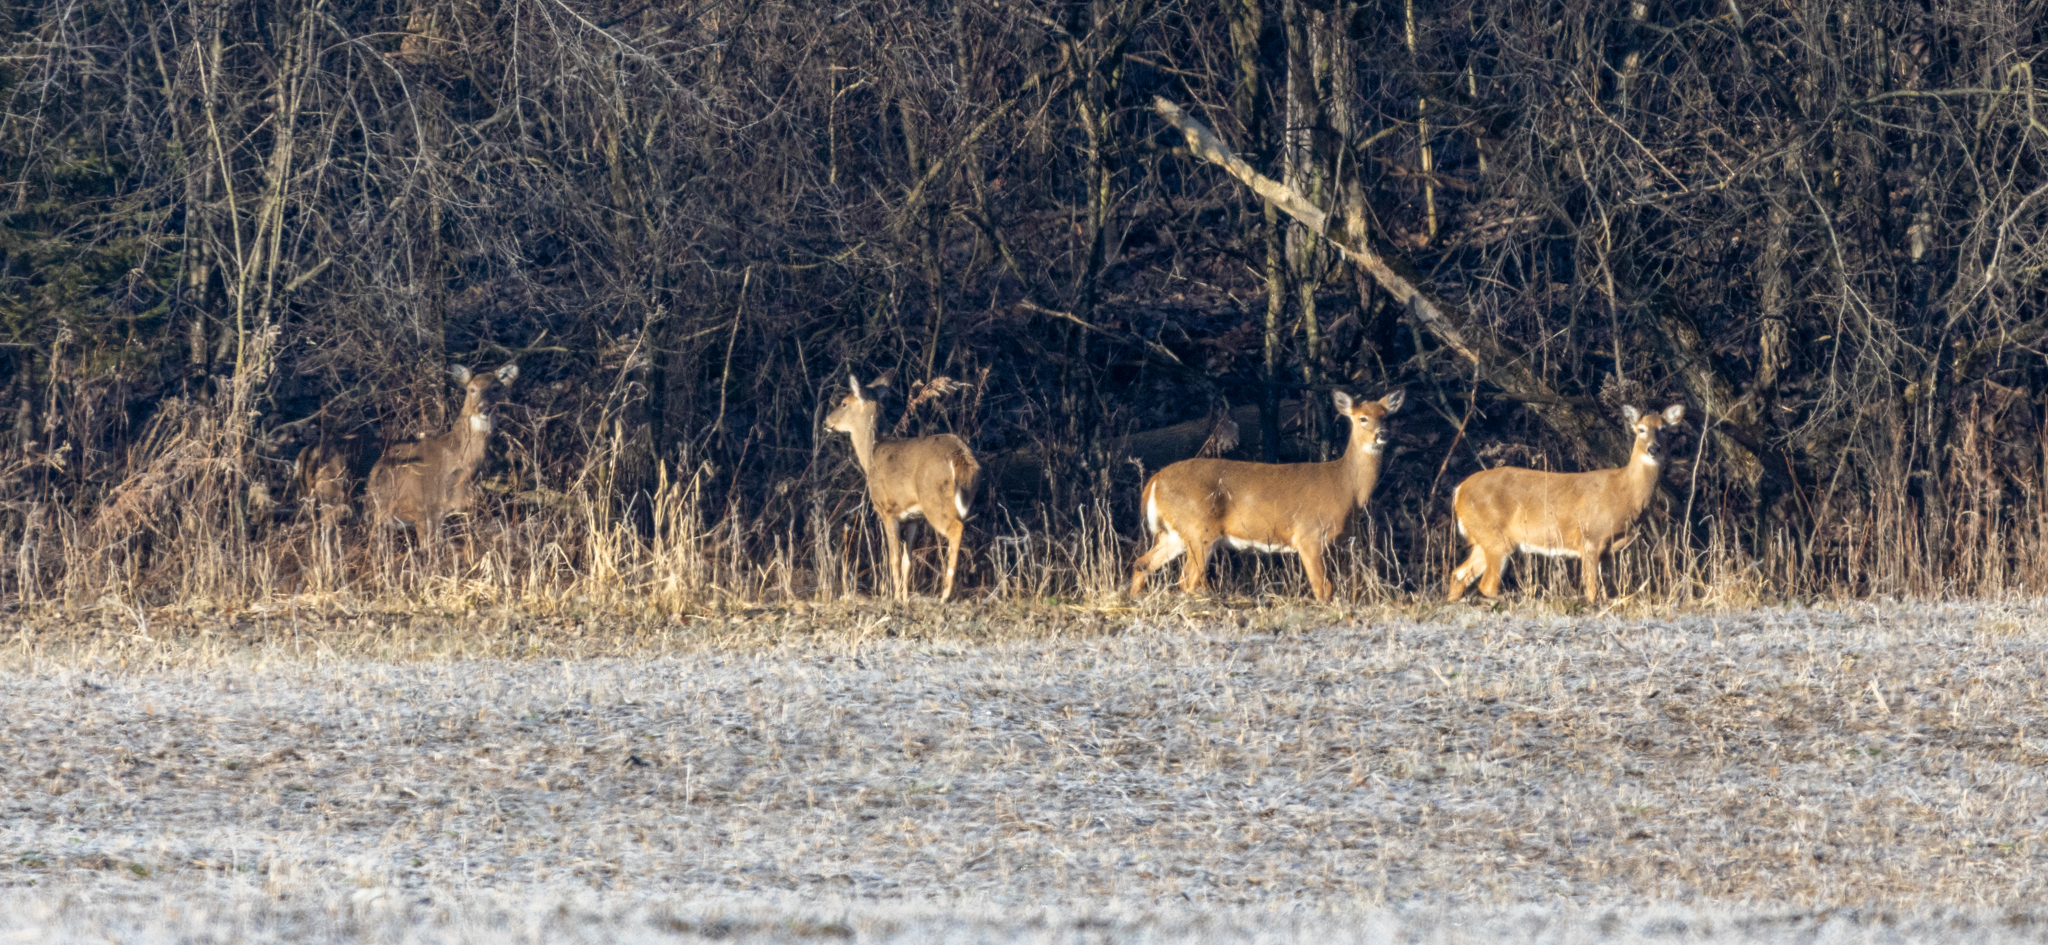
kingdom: Animalia
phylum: Chordata
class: Mammalia
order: Artiodactyla
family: Cervidae
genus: Odocoileus
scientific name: Odocoileus virginianus
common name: White-tailed deer
